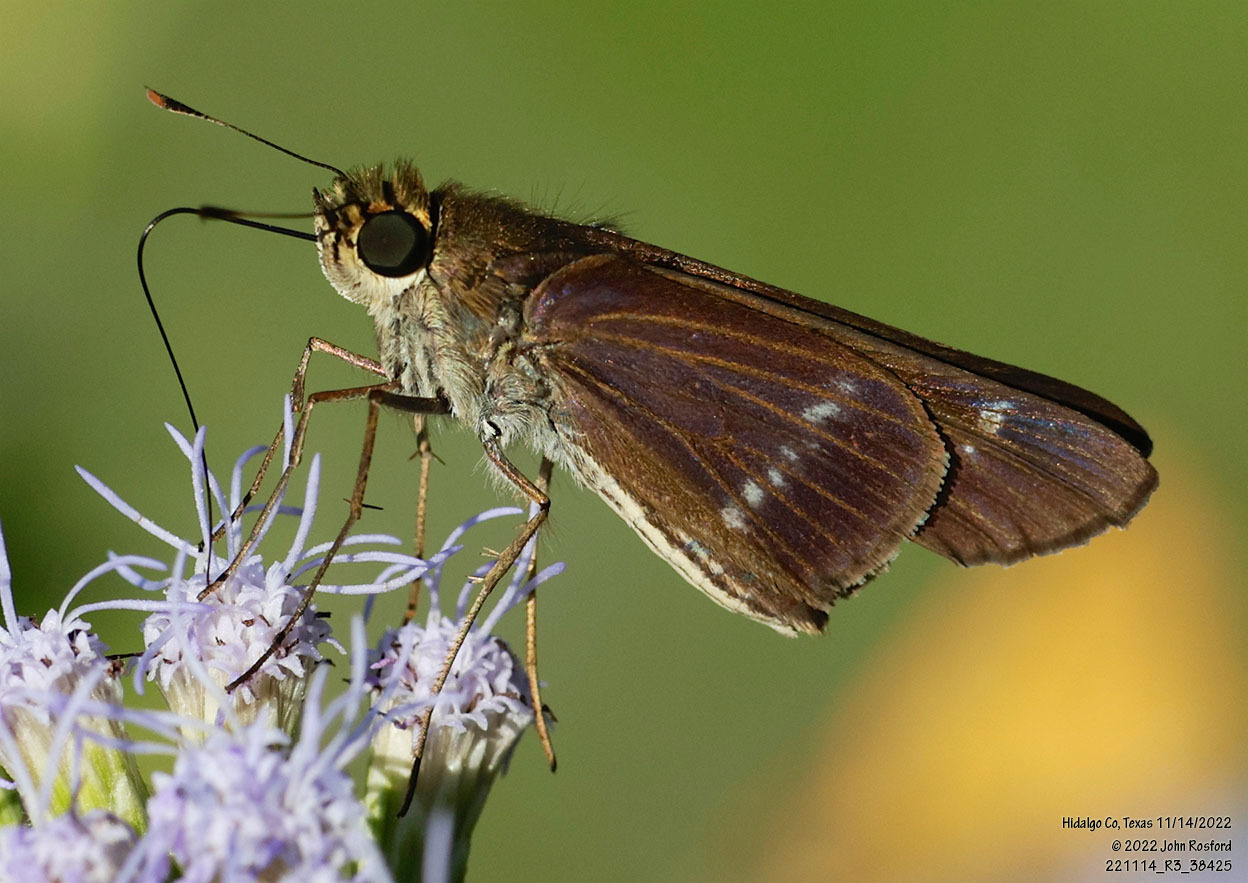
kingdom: Animalia
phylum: Arthropoda
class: Insecta
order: Lepidoptera
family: Hesperiidae
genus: Turesis
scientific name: Turesis lucas
